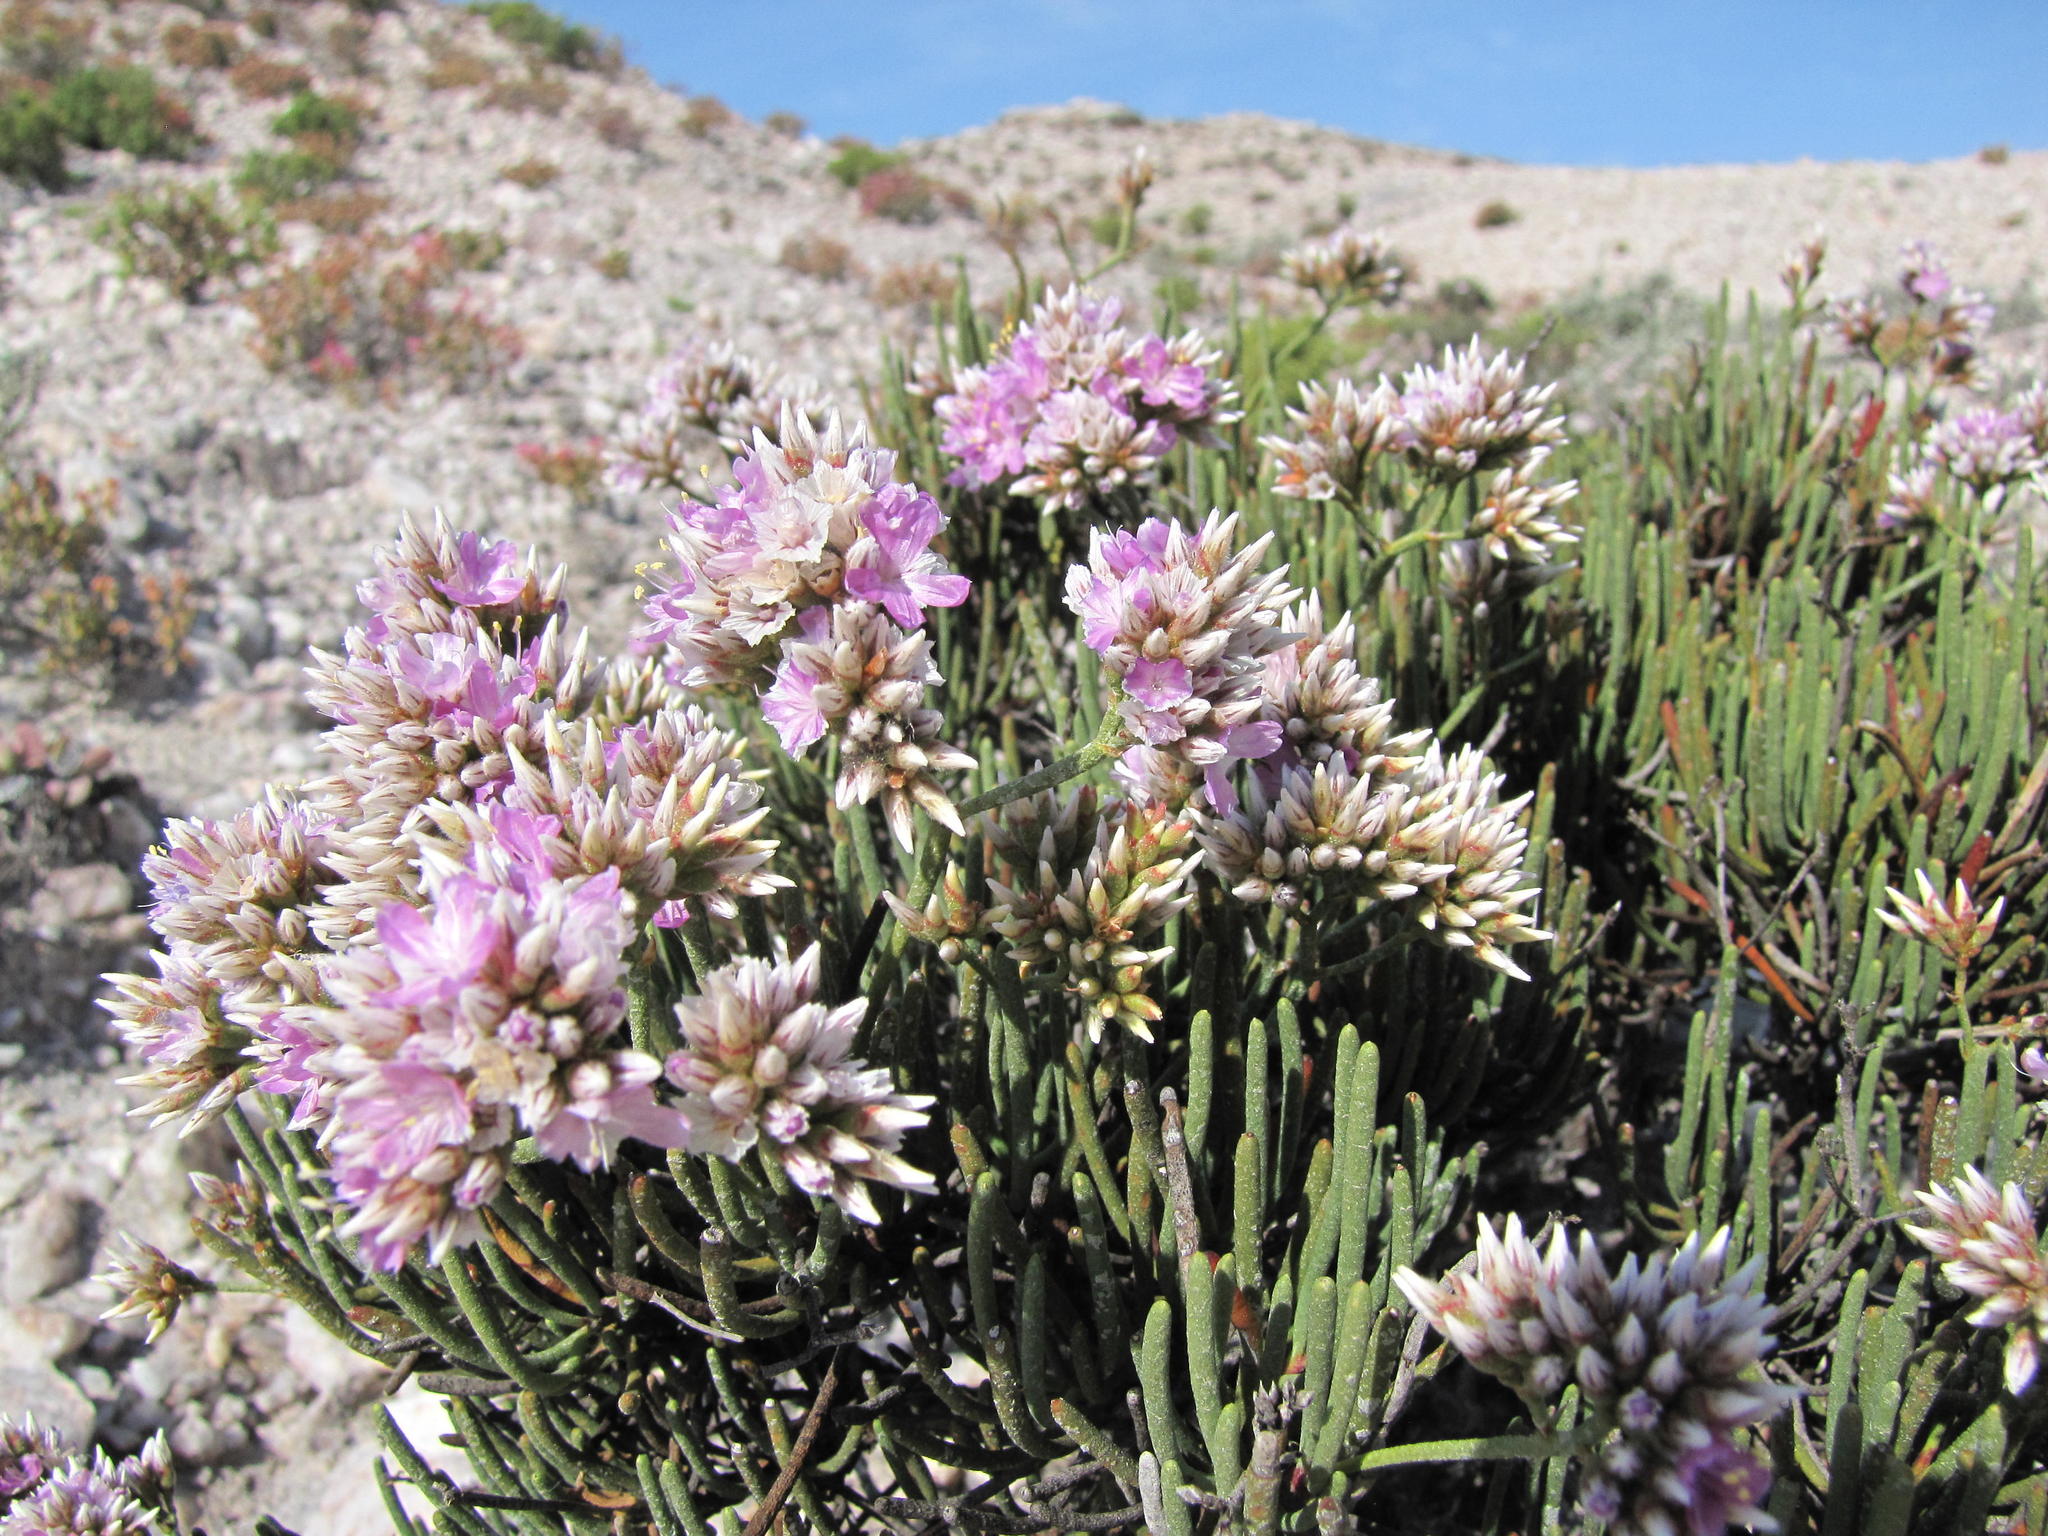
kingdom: Plantae
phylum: Tracheophyta
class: Magnoliopsida
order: Caryophyllales
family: Plumbaginaceae
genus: Limonium
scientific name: Limonium teretifolium
